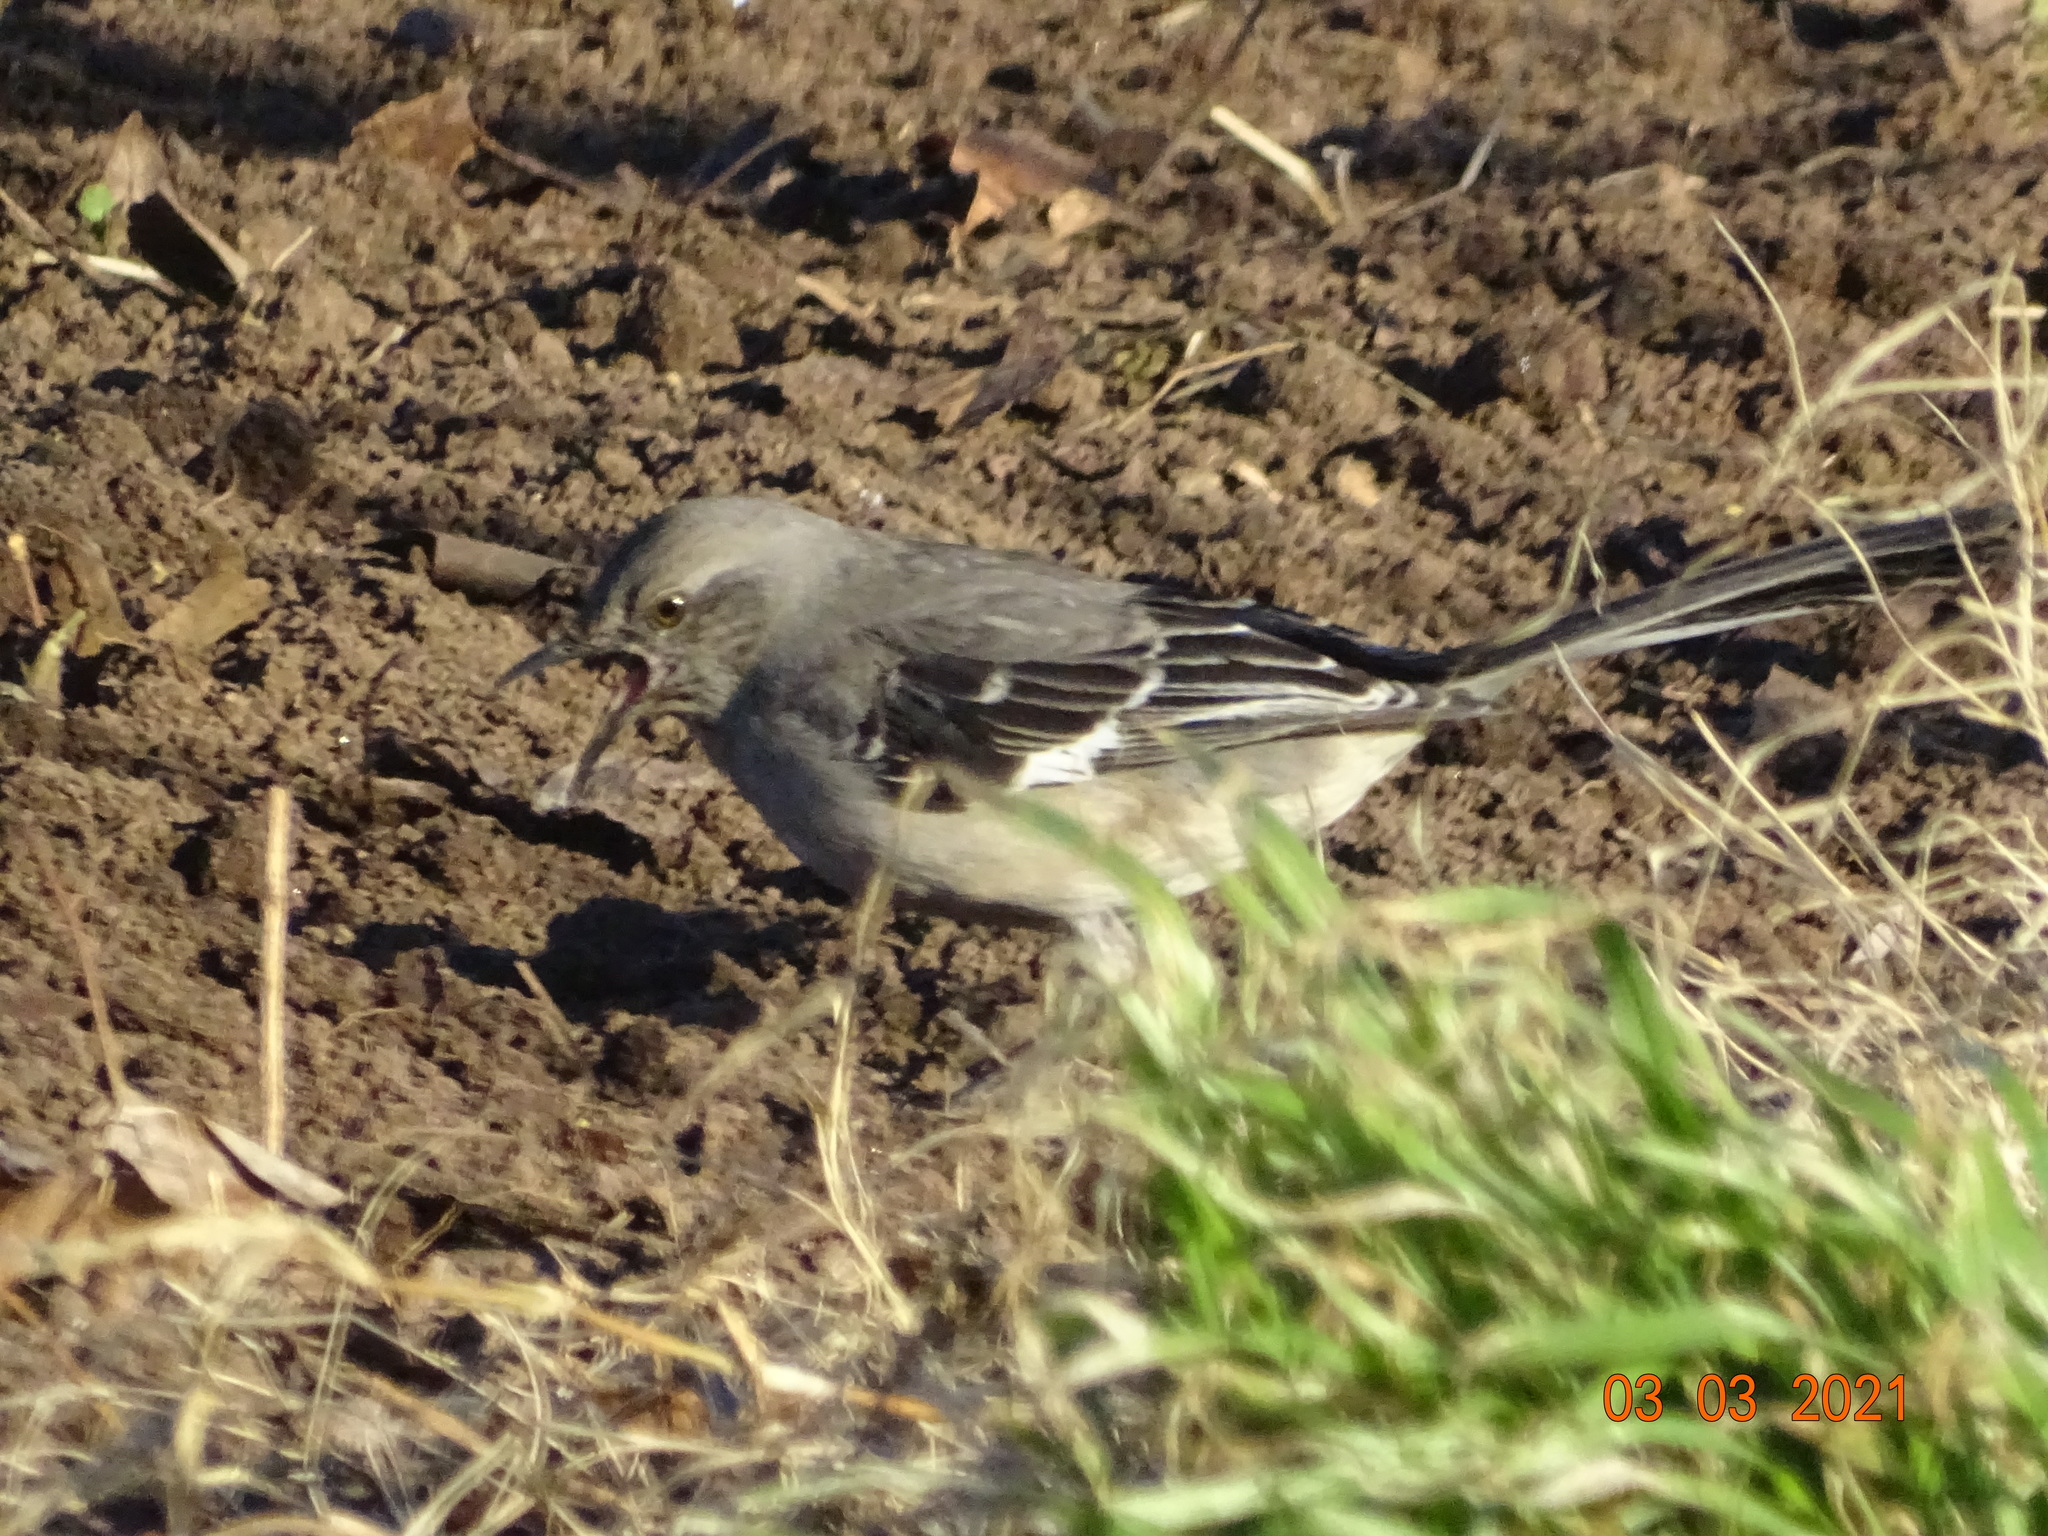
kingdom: Animalia
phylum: Chordata
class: Aves
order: Passeriformes
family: Mimidae
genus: Mimus
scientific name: Mimus polyglottos
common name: Northern mockingbird
